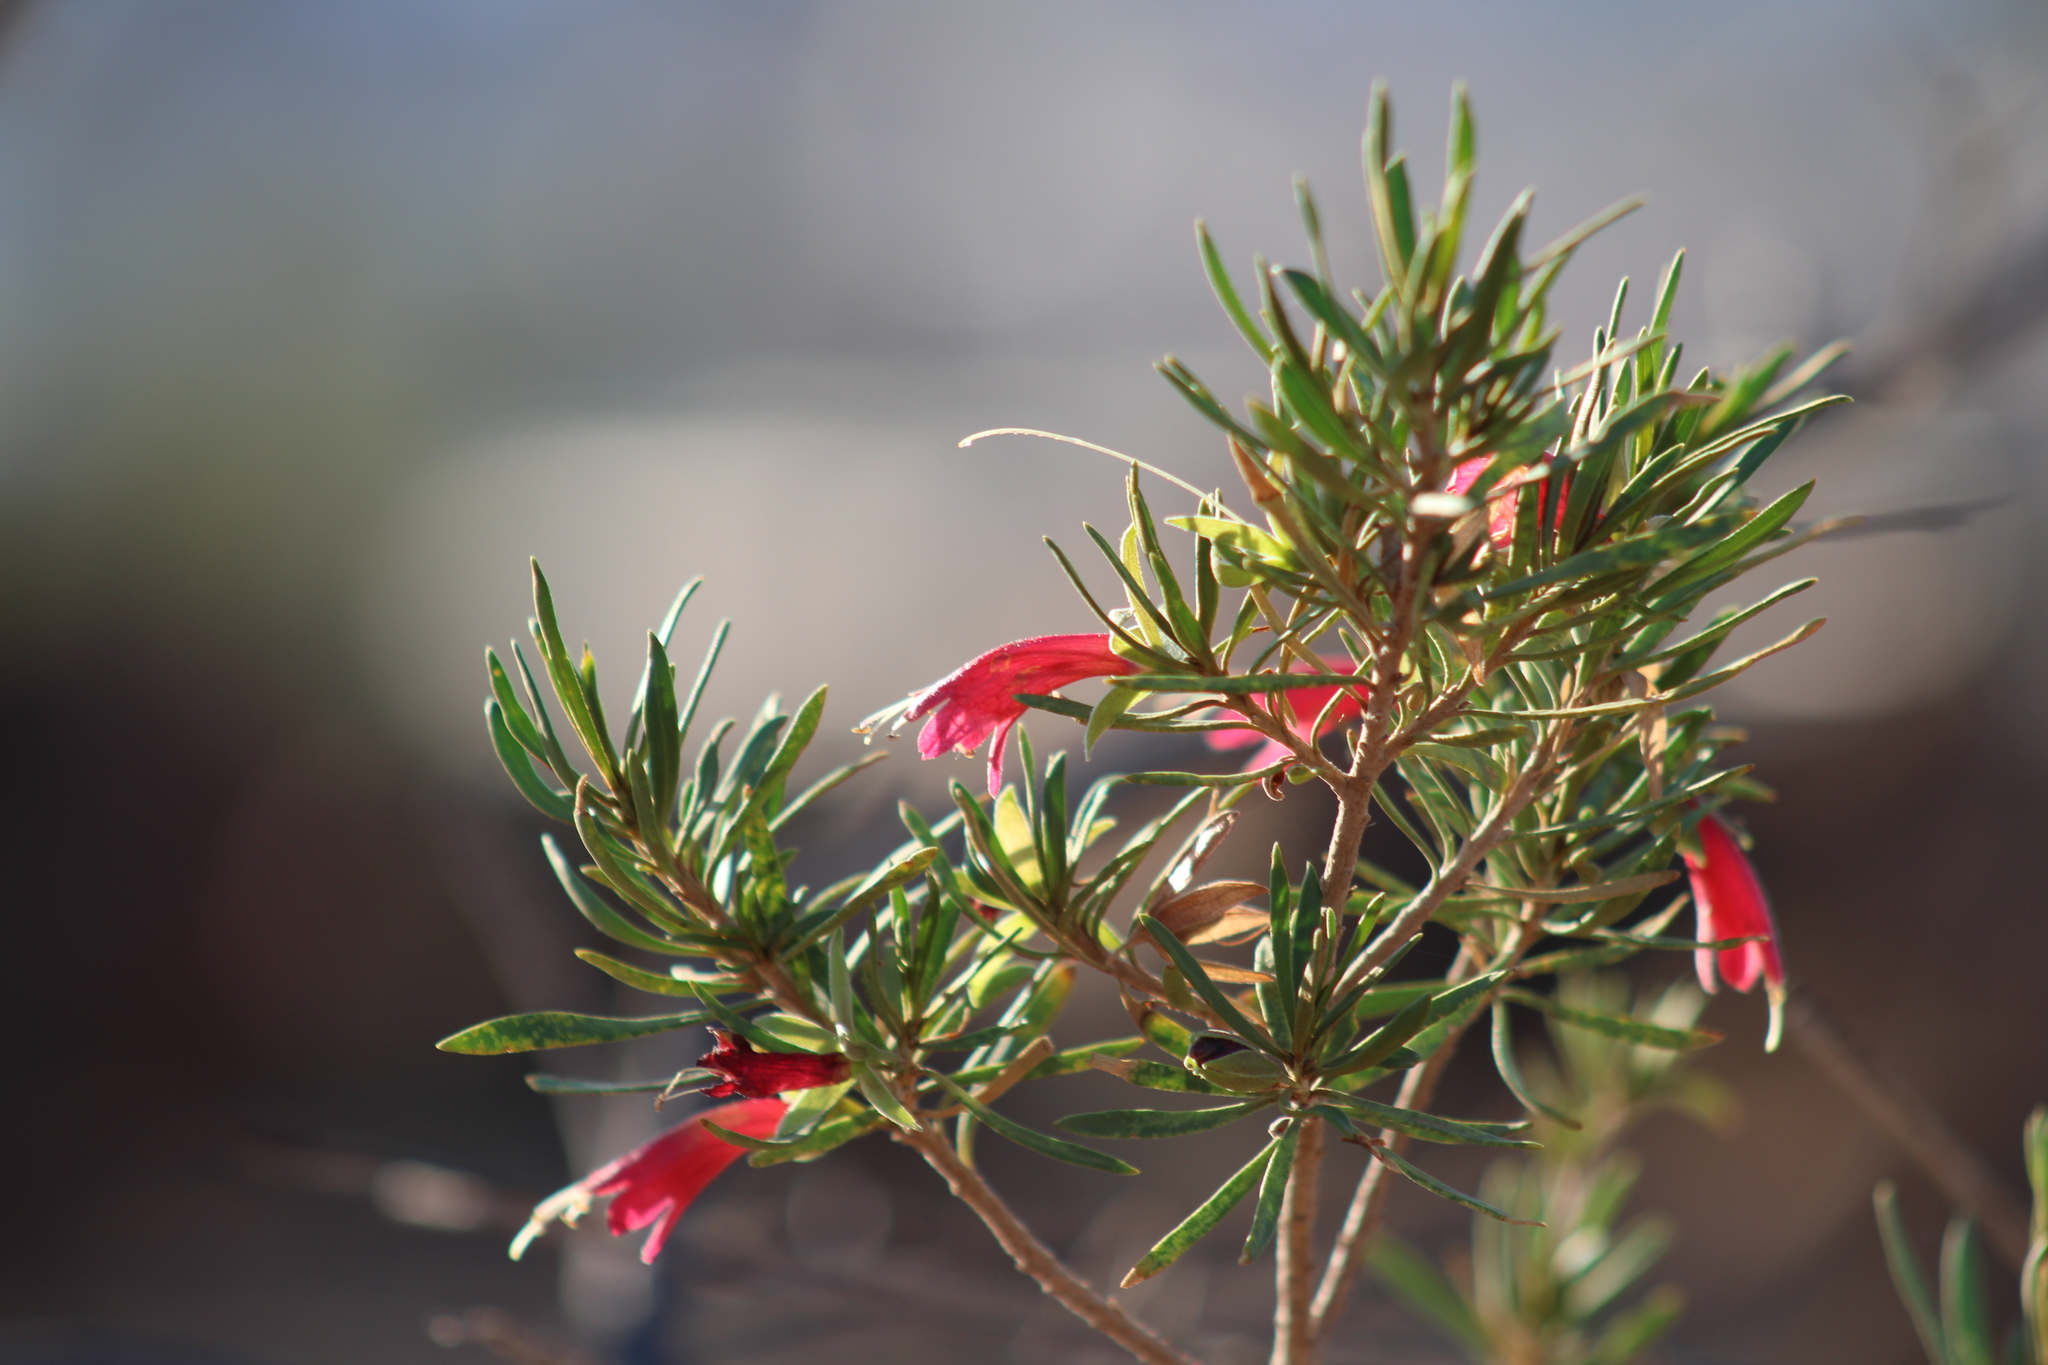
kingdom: Plantae
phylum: Tracheophyta
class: Magnoliopsida
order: Lamiales
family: Scrophulariaceae
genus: Eremophila
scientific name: Eremophila latrobei
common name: Crimson turkeybush
